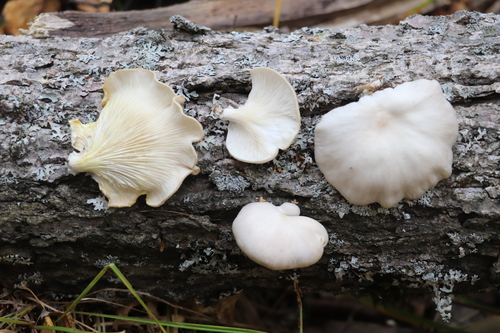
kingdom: Fungi
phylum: Basidiomycota
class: Agaricomycetes
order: Agaricales
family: Pleurotaceae
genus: Pleurotus
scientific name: Pleurotus pulmonarius
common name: Pale oyster
